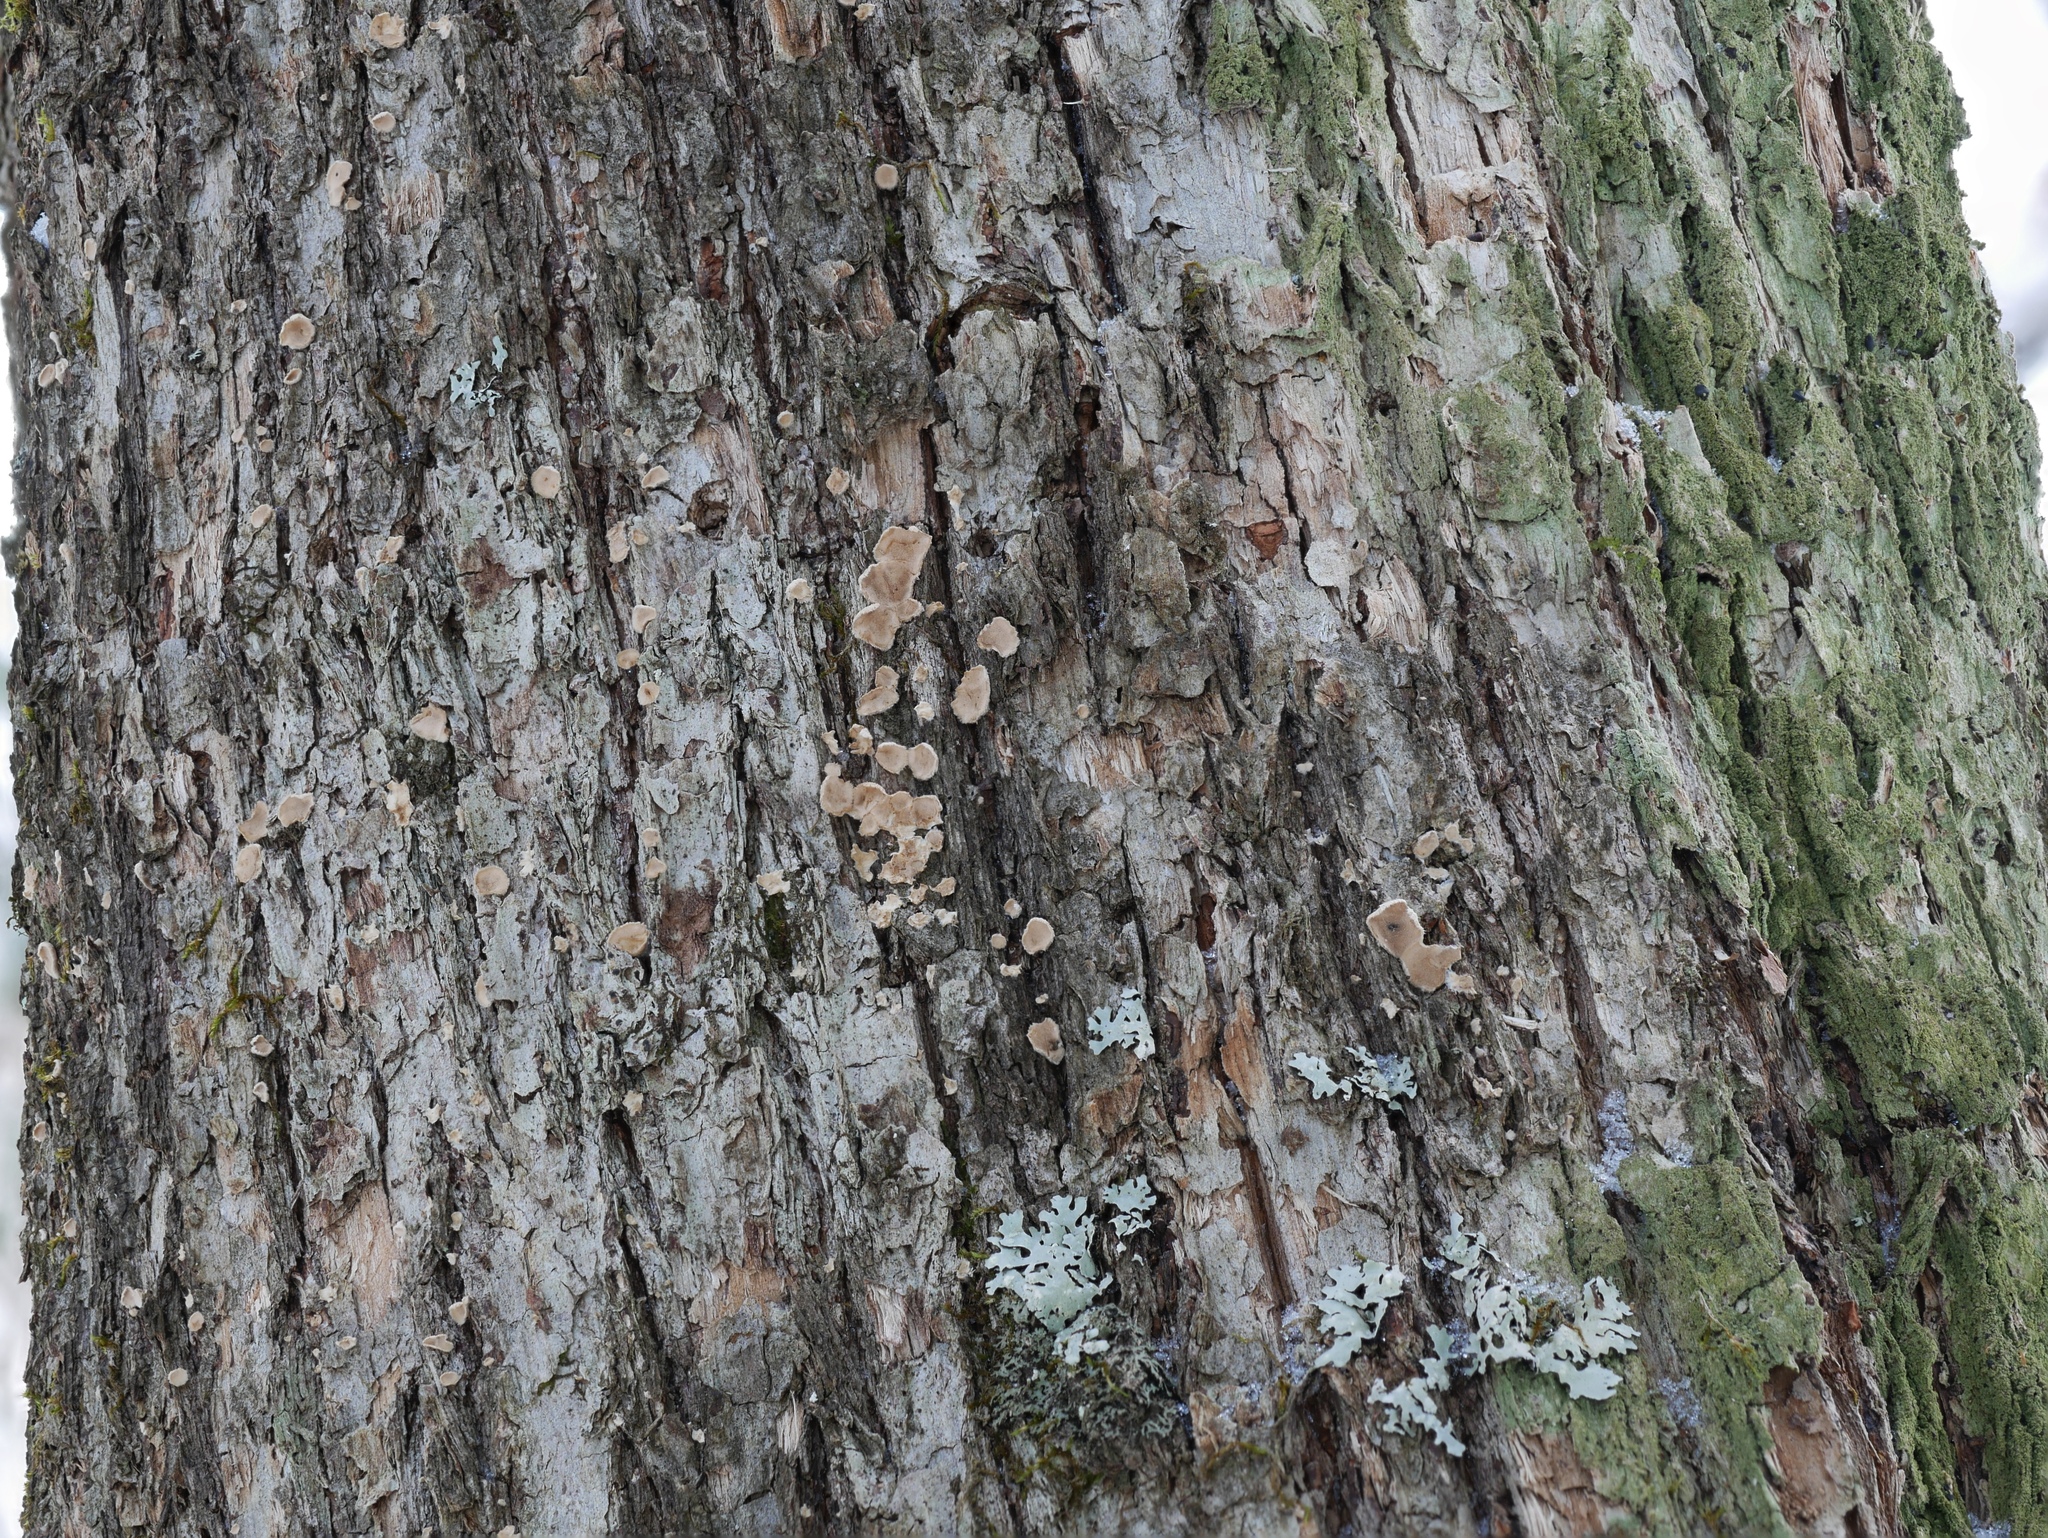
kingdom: Fungi
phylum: Basidiomycota
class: Agaricomycetes
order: Russulales
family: Stereaceae
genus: Acanthophysium
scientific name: Acanthophysium oakesii
